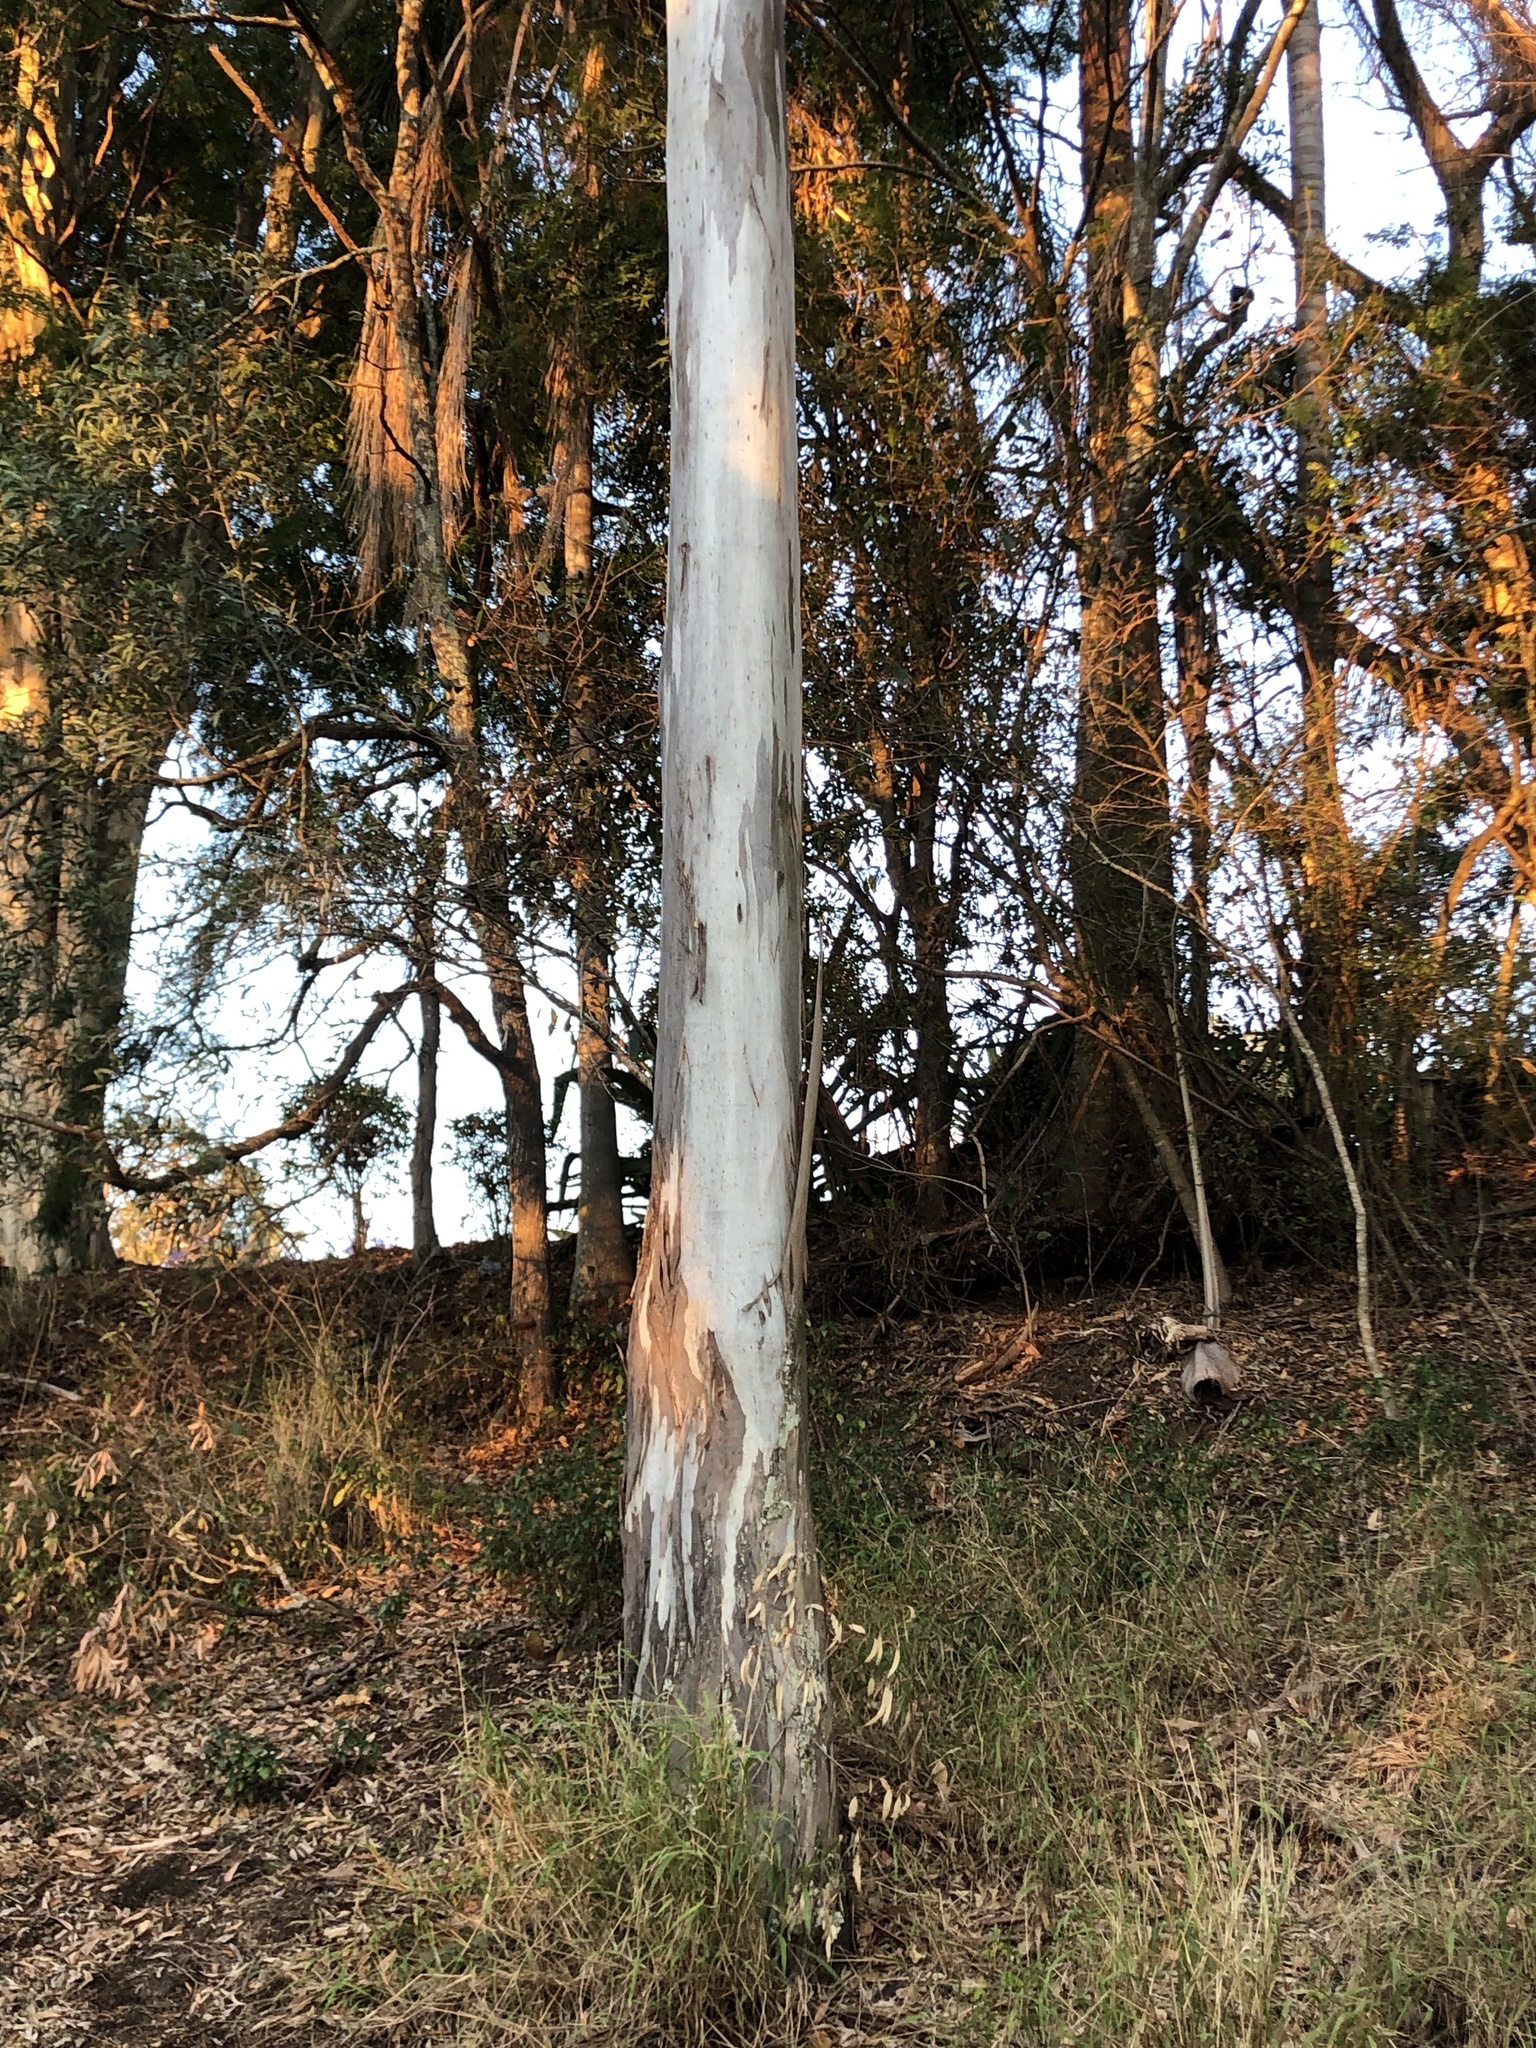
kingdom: Plantae
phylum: Tracheophyta
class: Magnoliopsida
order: Myrtales
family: Myrtaceae
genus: Eucalyptus
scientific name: Eucalyptus tereticornis
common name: Forest redgum
